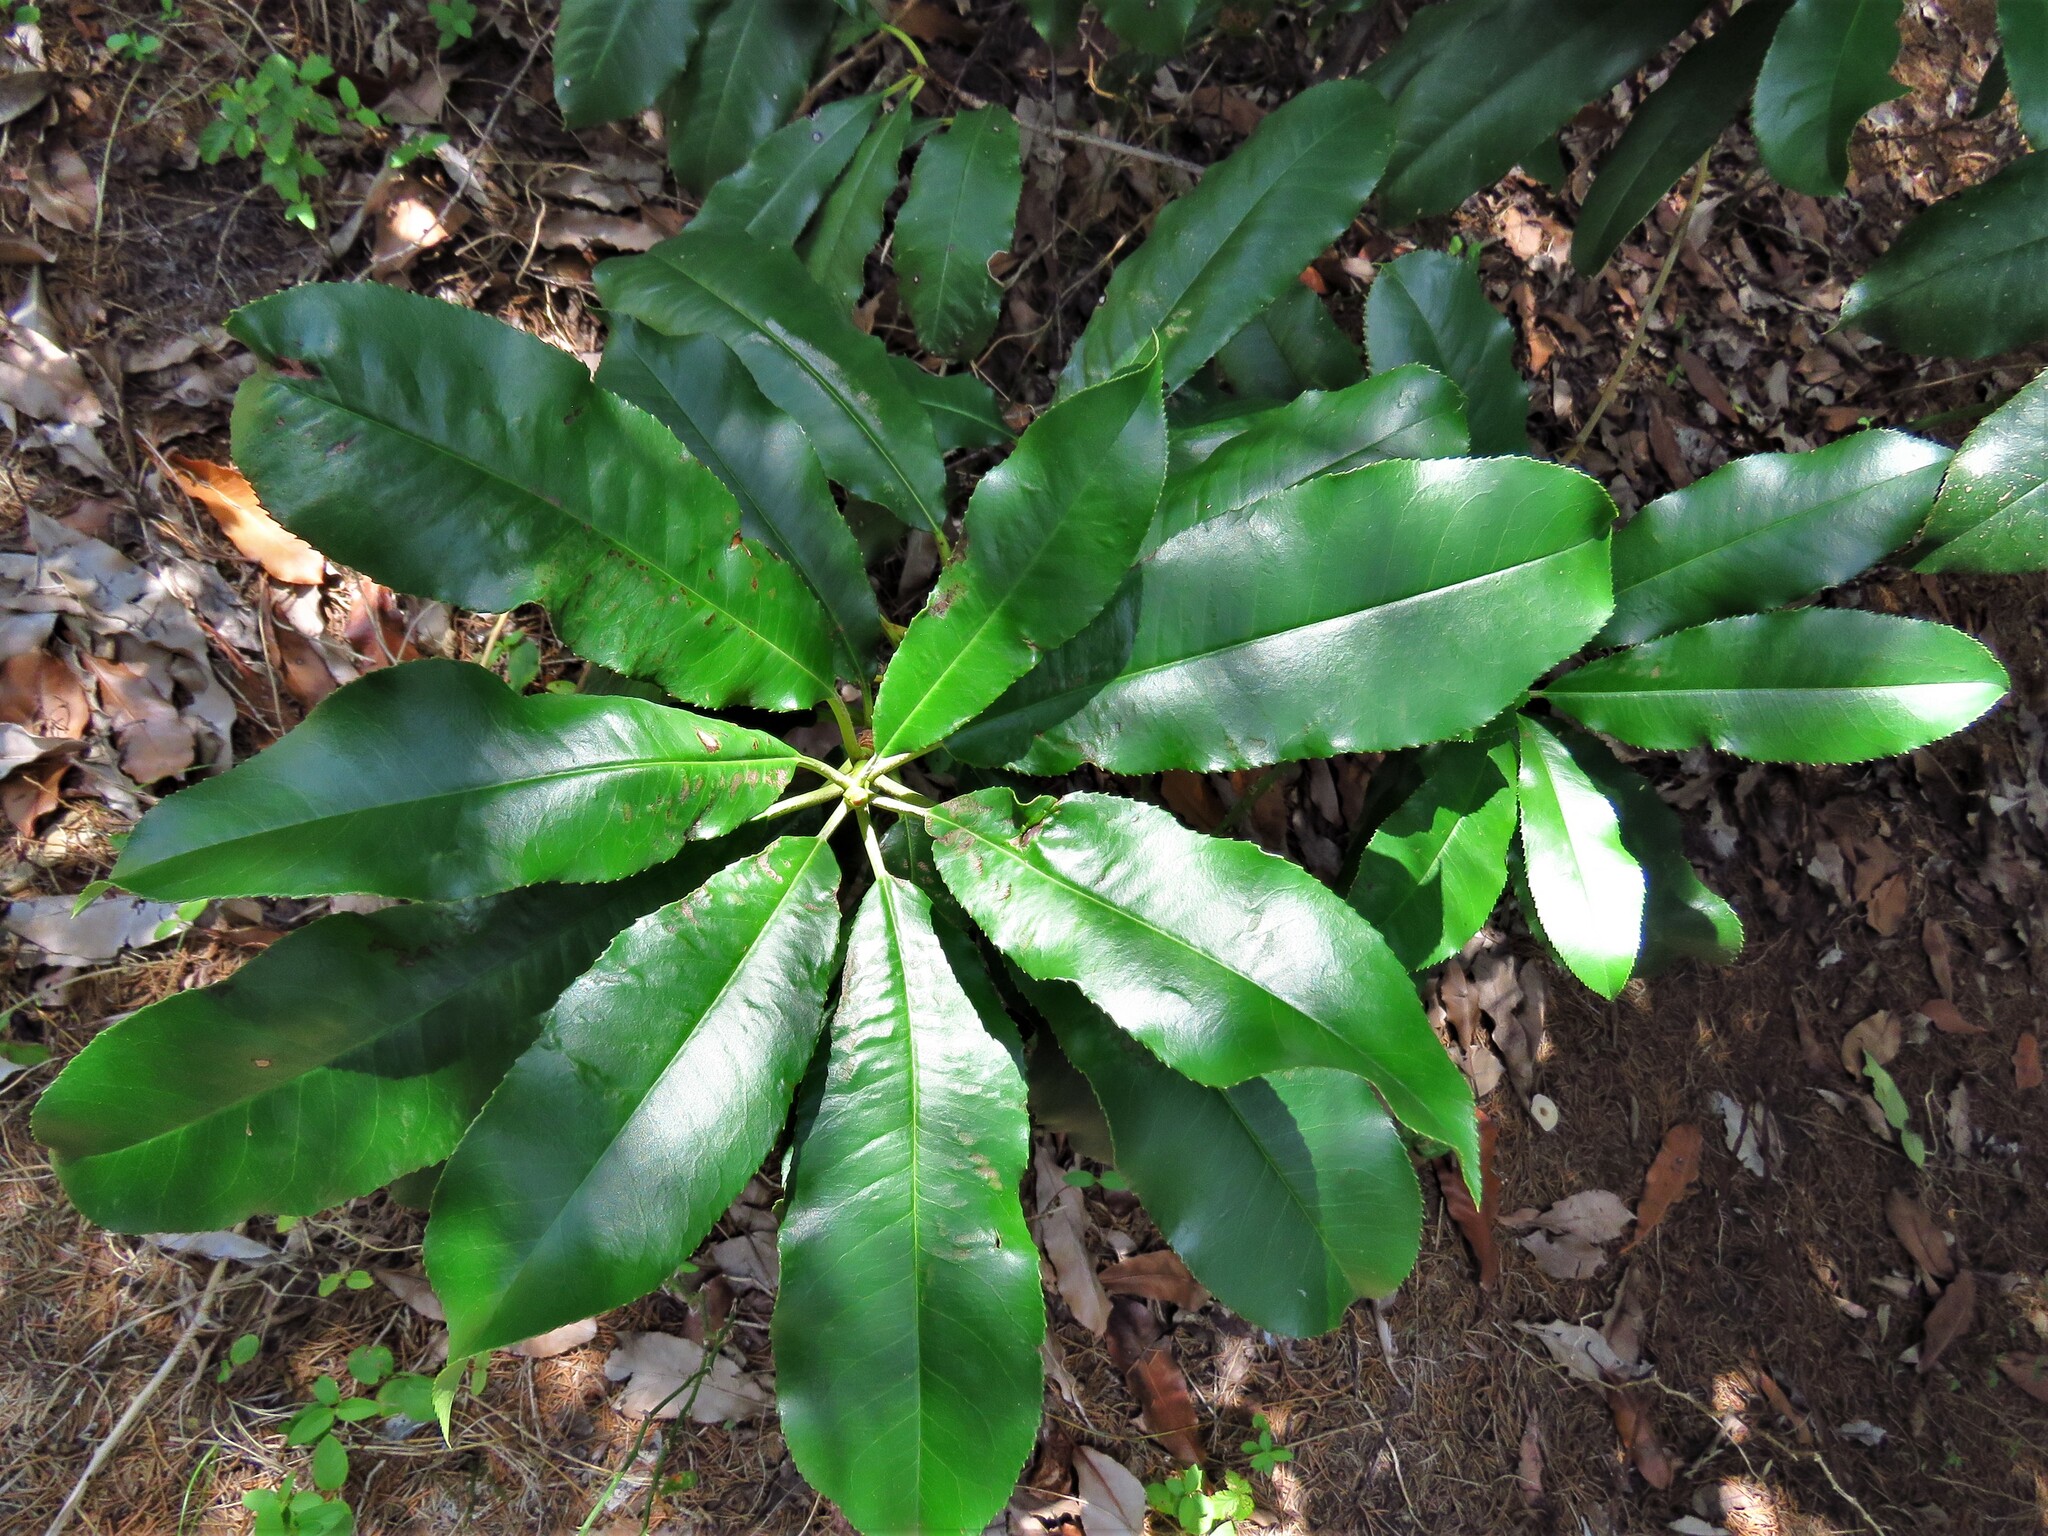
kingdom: Plantae
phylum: Tracheophyta
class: Magnoliopsida
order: Rosales
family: Rosaceae
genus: Photinia
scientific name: Photinia serratifolia
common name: Taiwanese photinia
